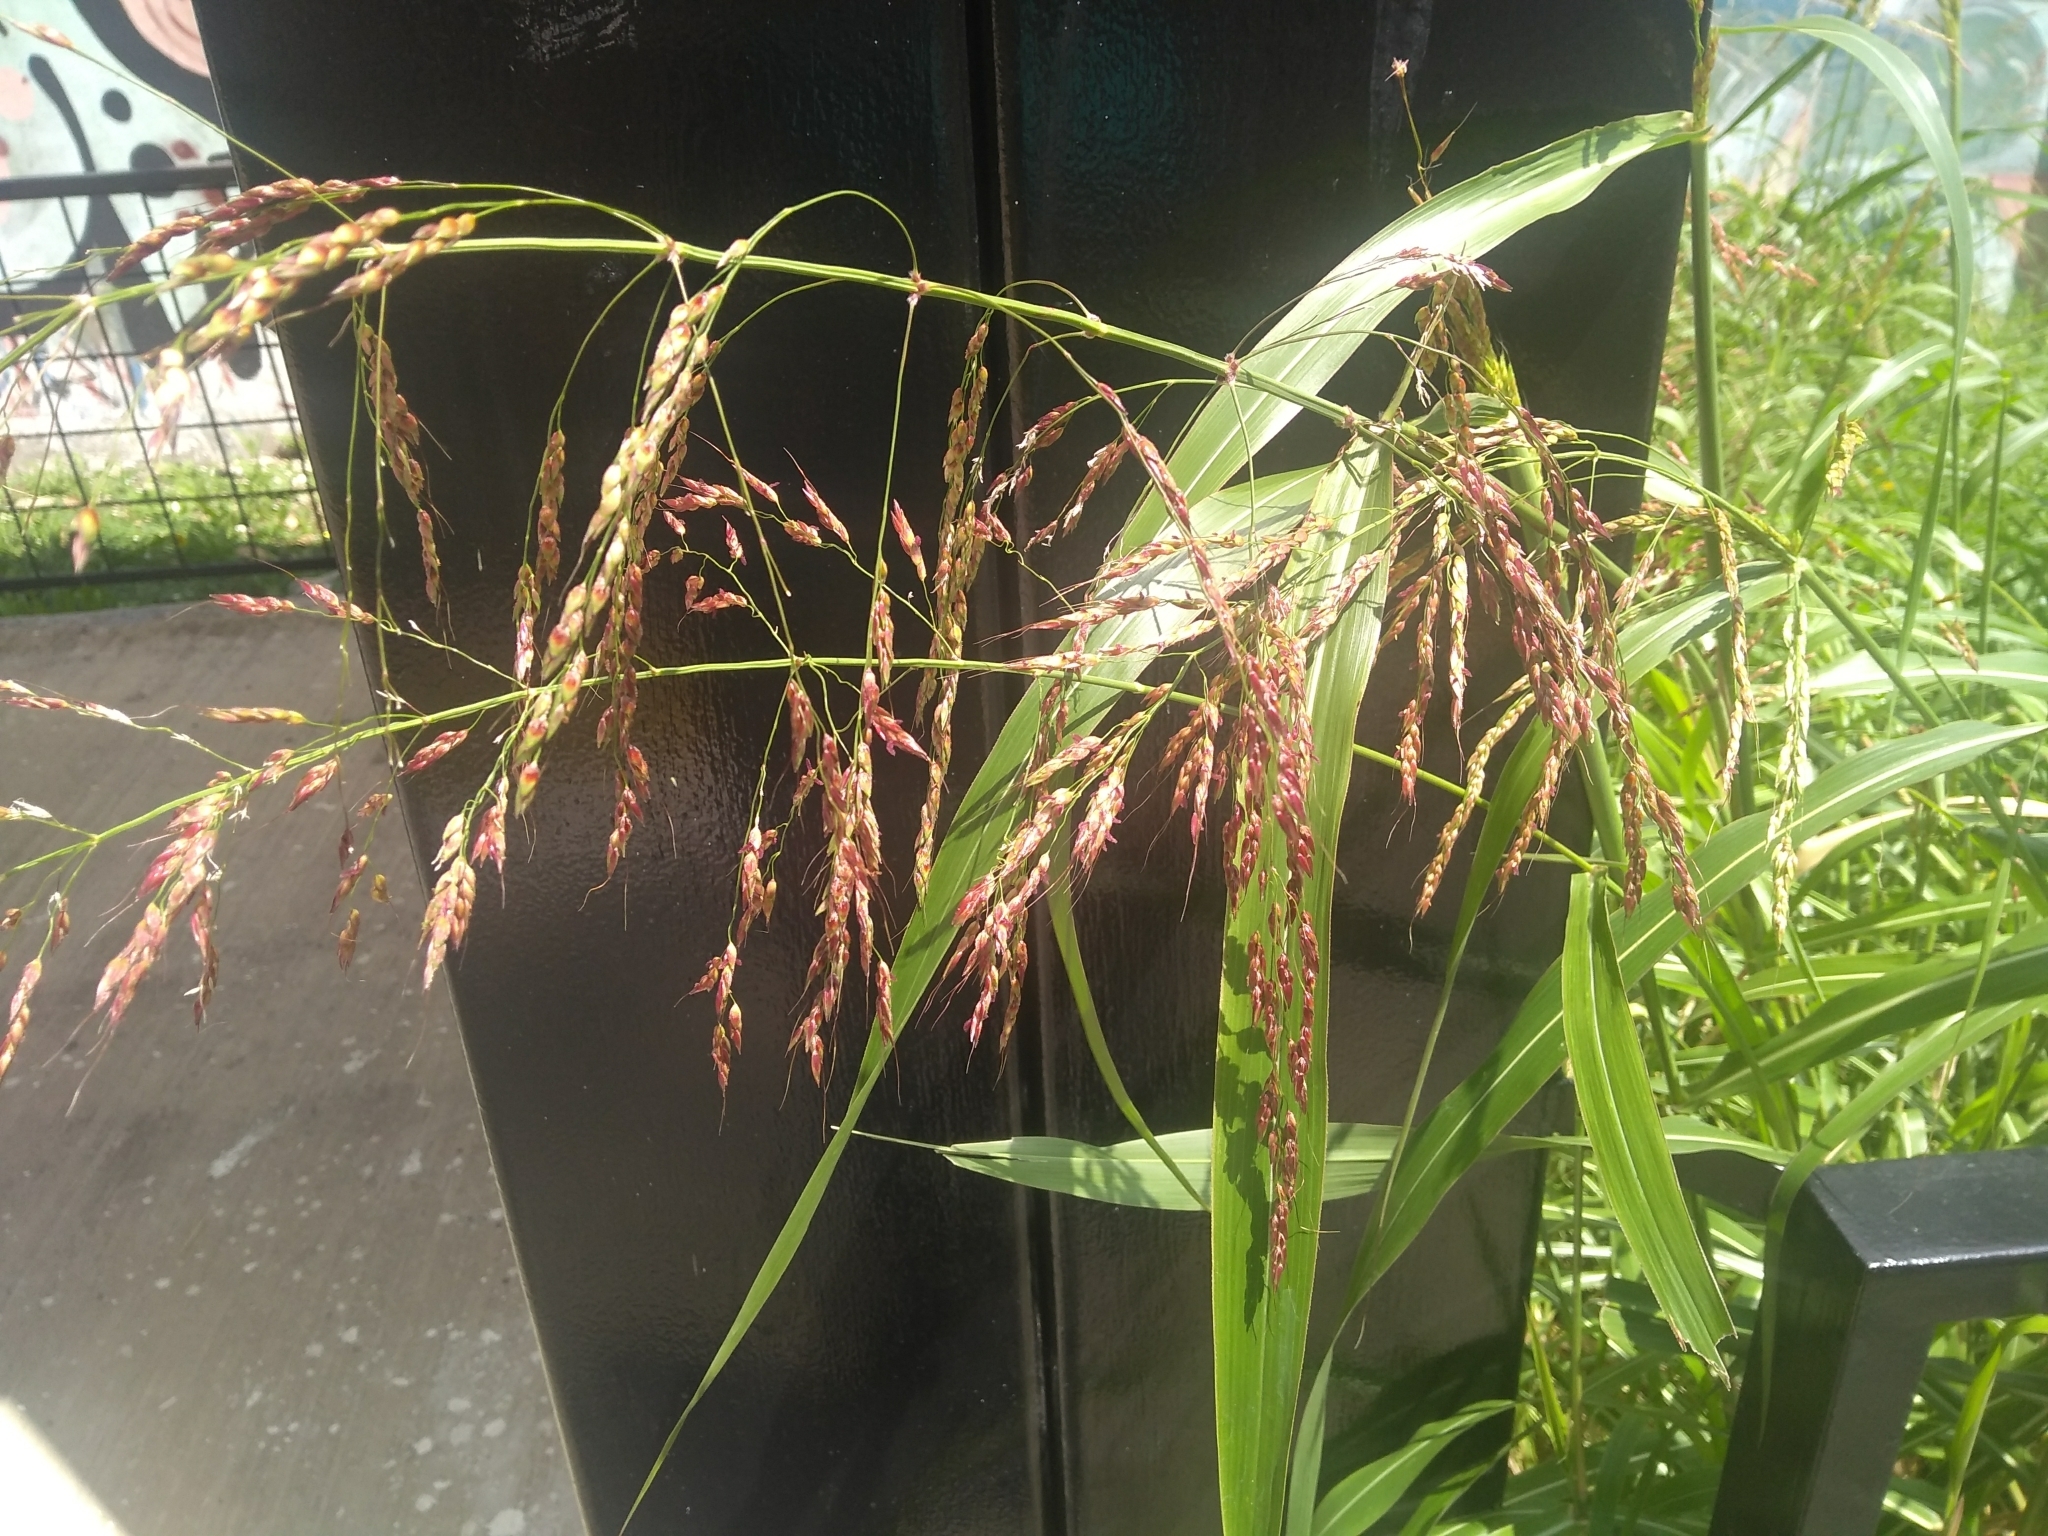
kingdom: Plantae
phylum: Tracheophyta
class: Liliopsida
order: Poales
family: Poaceae
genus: Sorghum
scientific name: Sorghum halepense
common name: Johnson-grass
